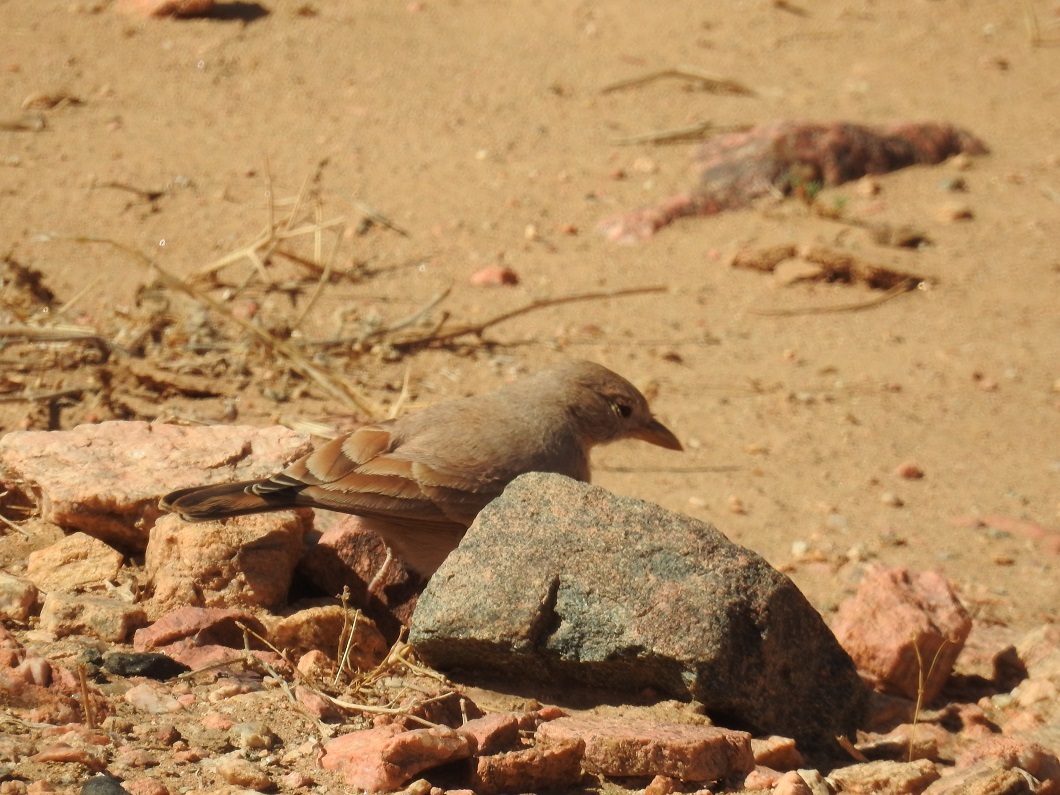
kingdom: Animalia
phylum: Chordata
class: Aves
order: Passeriformes
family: Alaudidae
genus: Ammomanes
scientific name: Ammomanes deserti
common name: Desert lark
